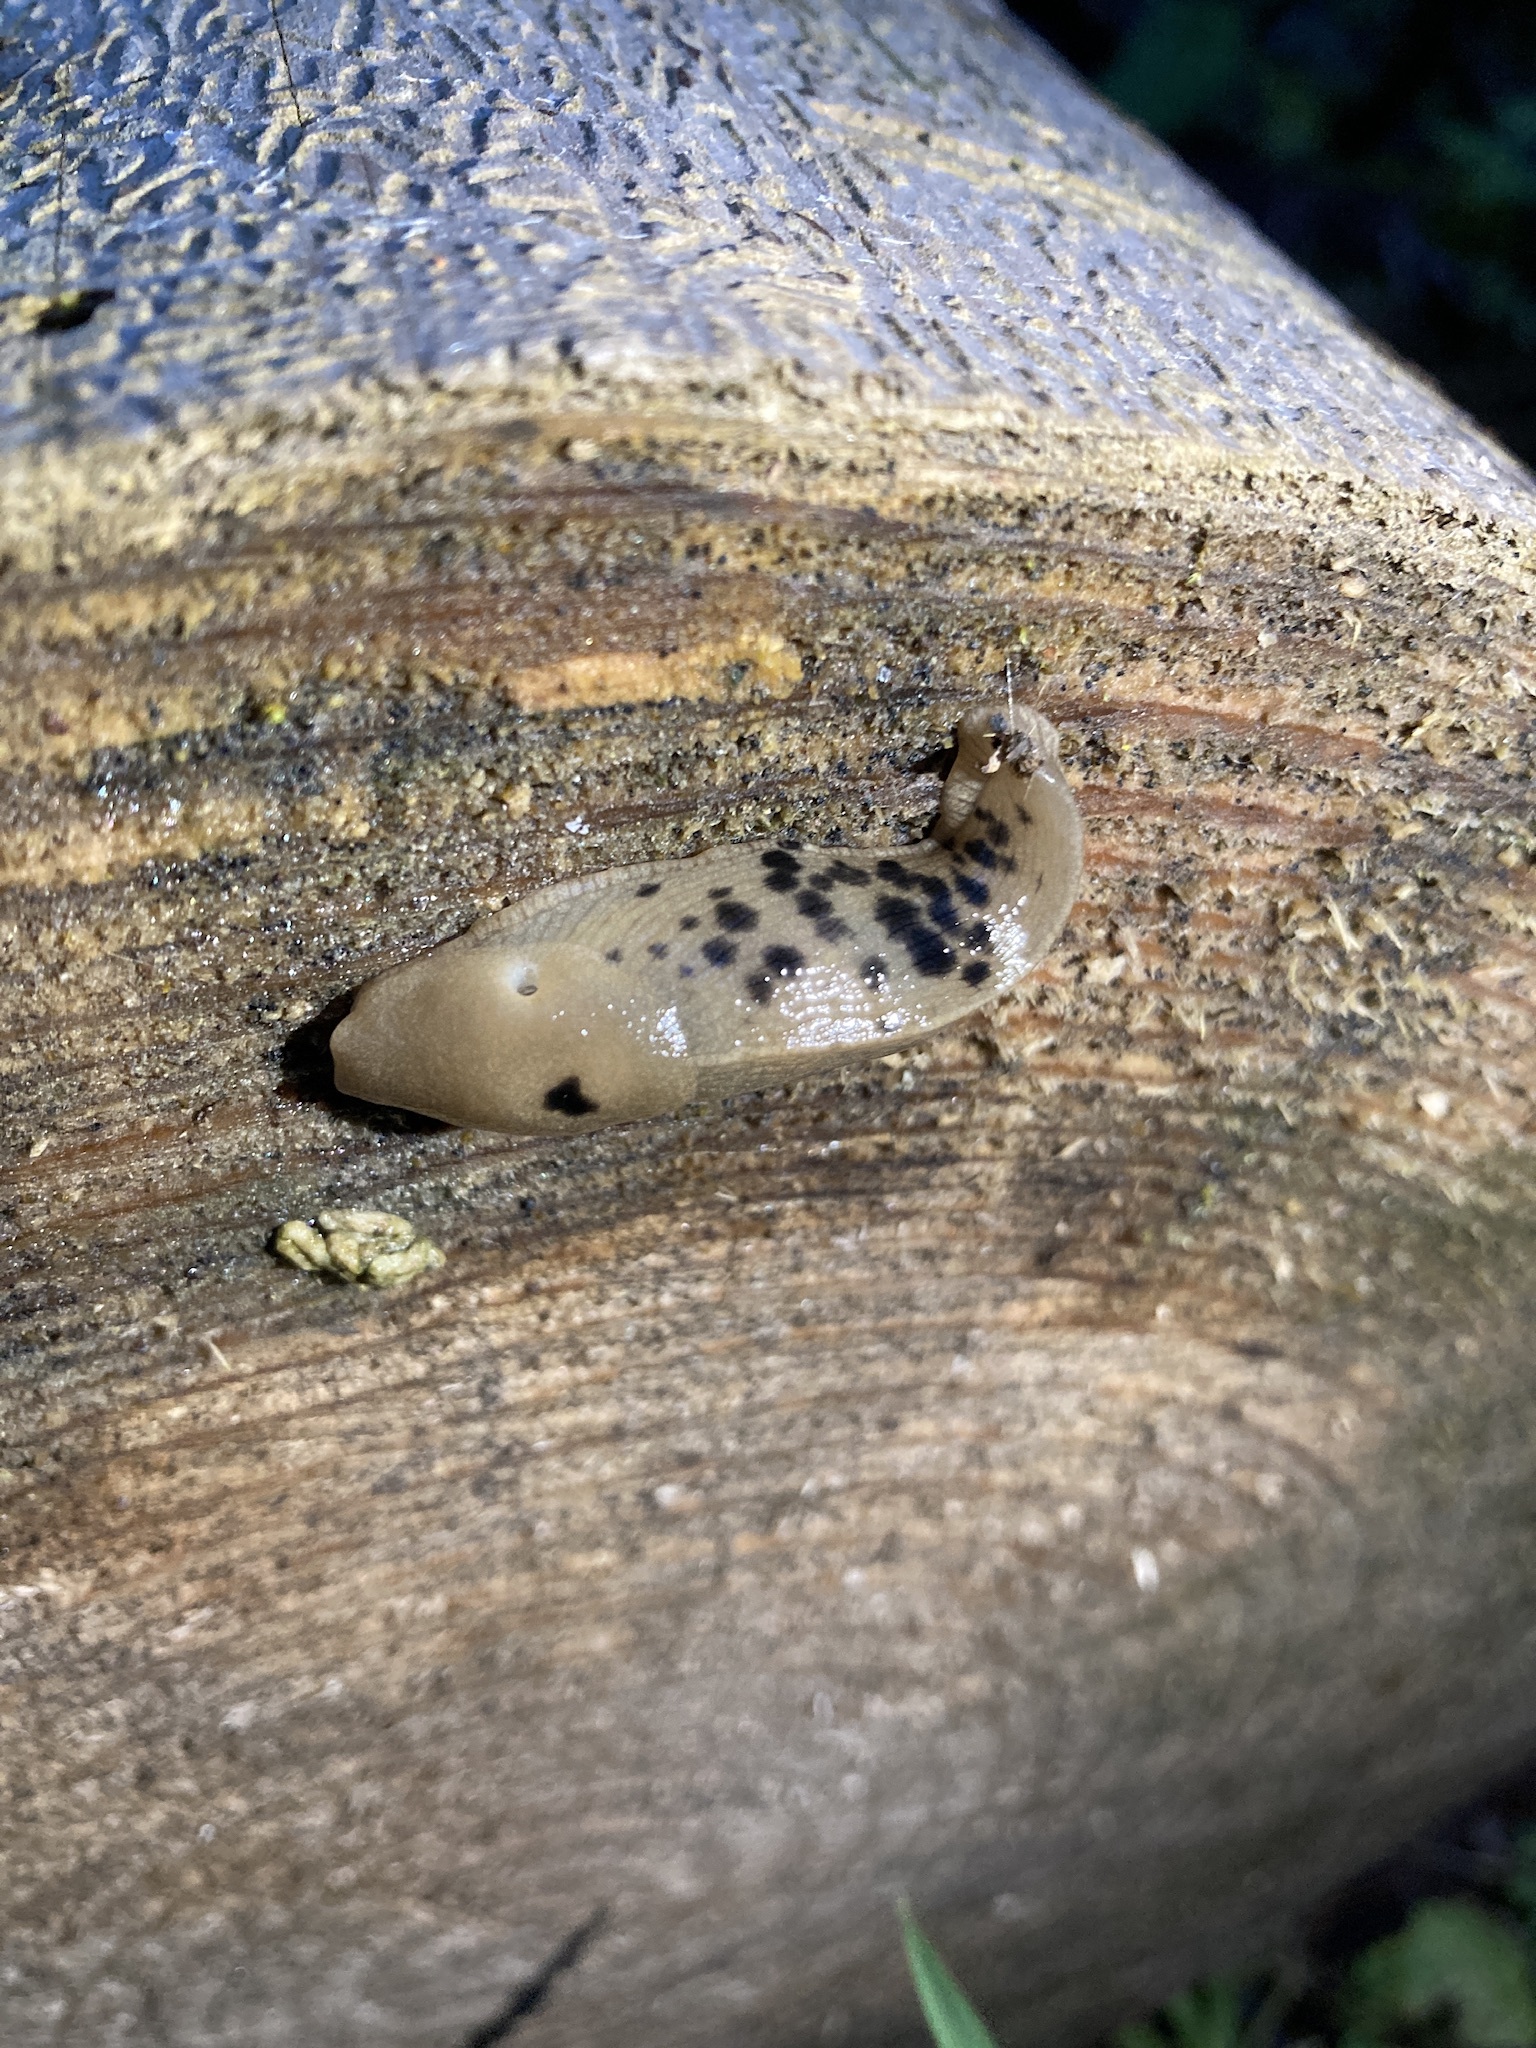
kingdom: Animalia
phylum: Mollusca
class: Gastropoda
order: Stylommatophora
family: Ariolimacidae
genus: Ariolimax
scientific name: Ariolimax columbianus
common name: Pacific banana slug
